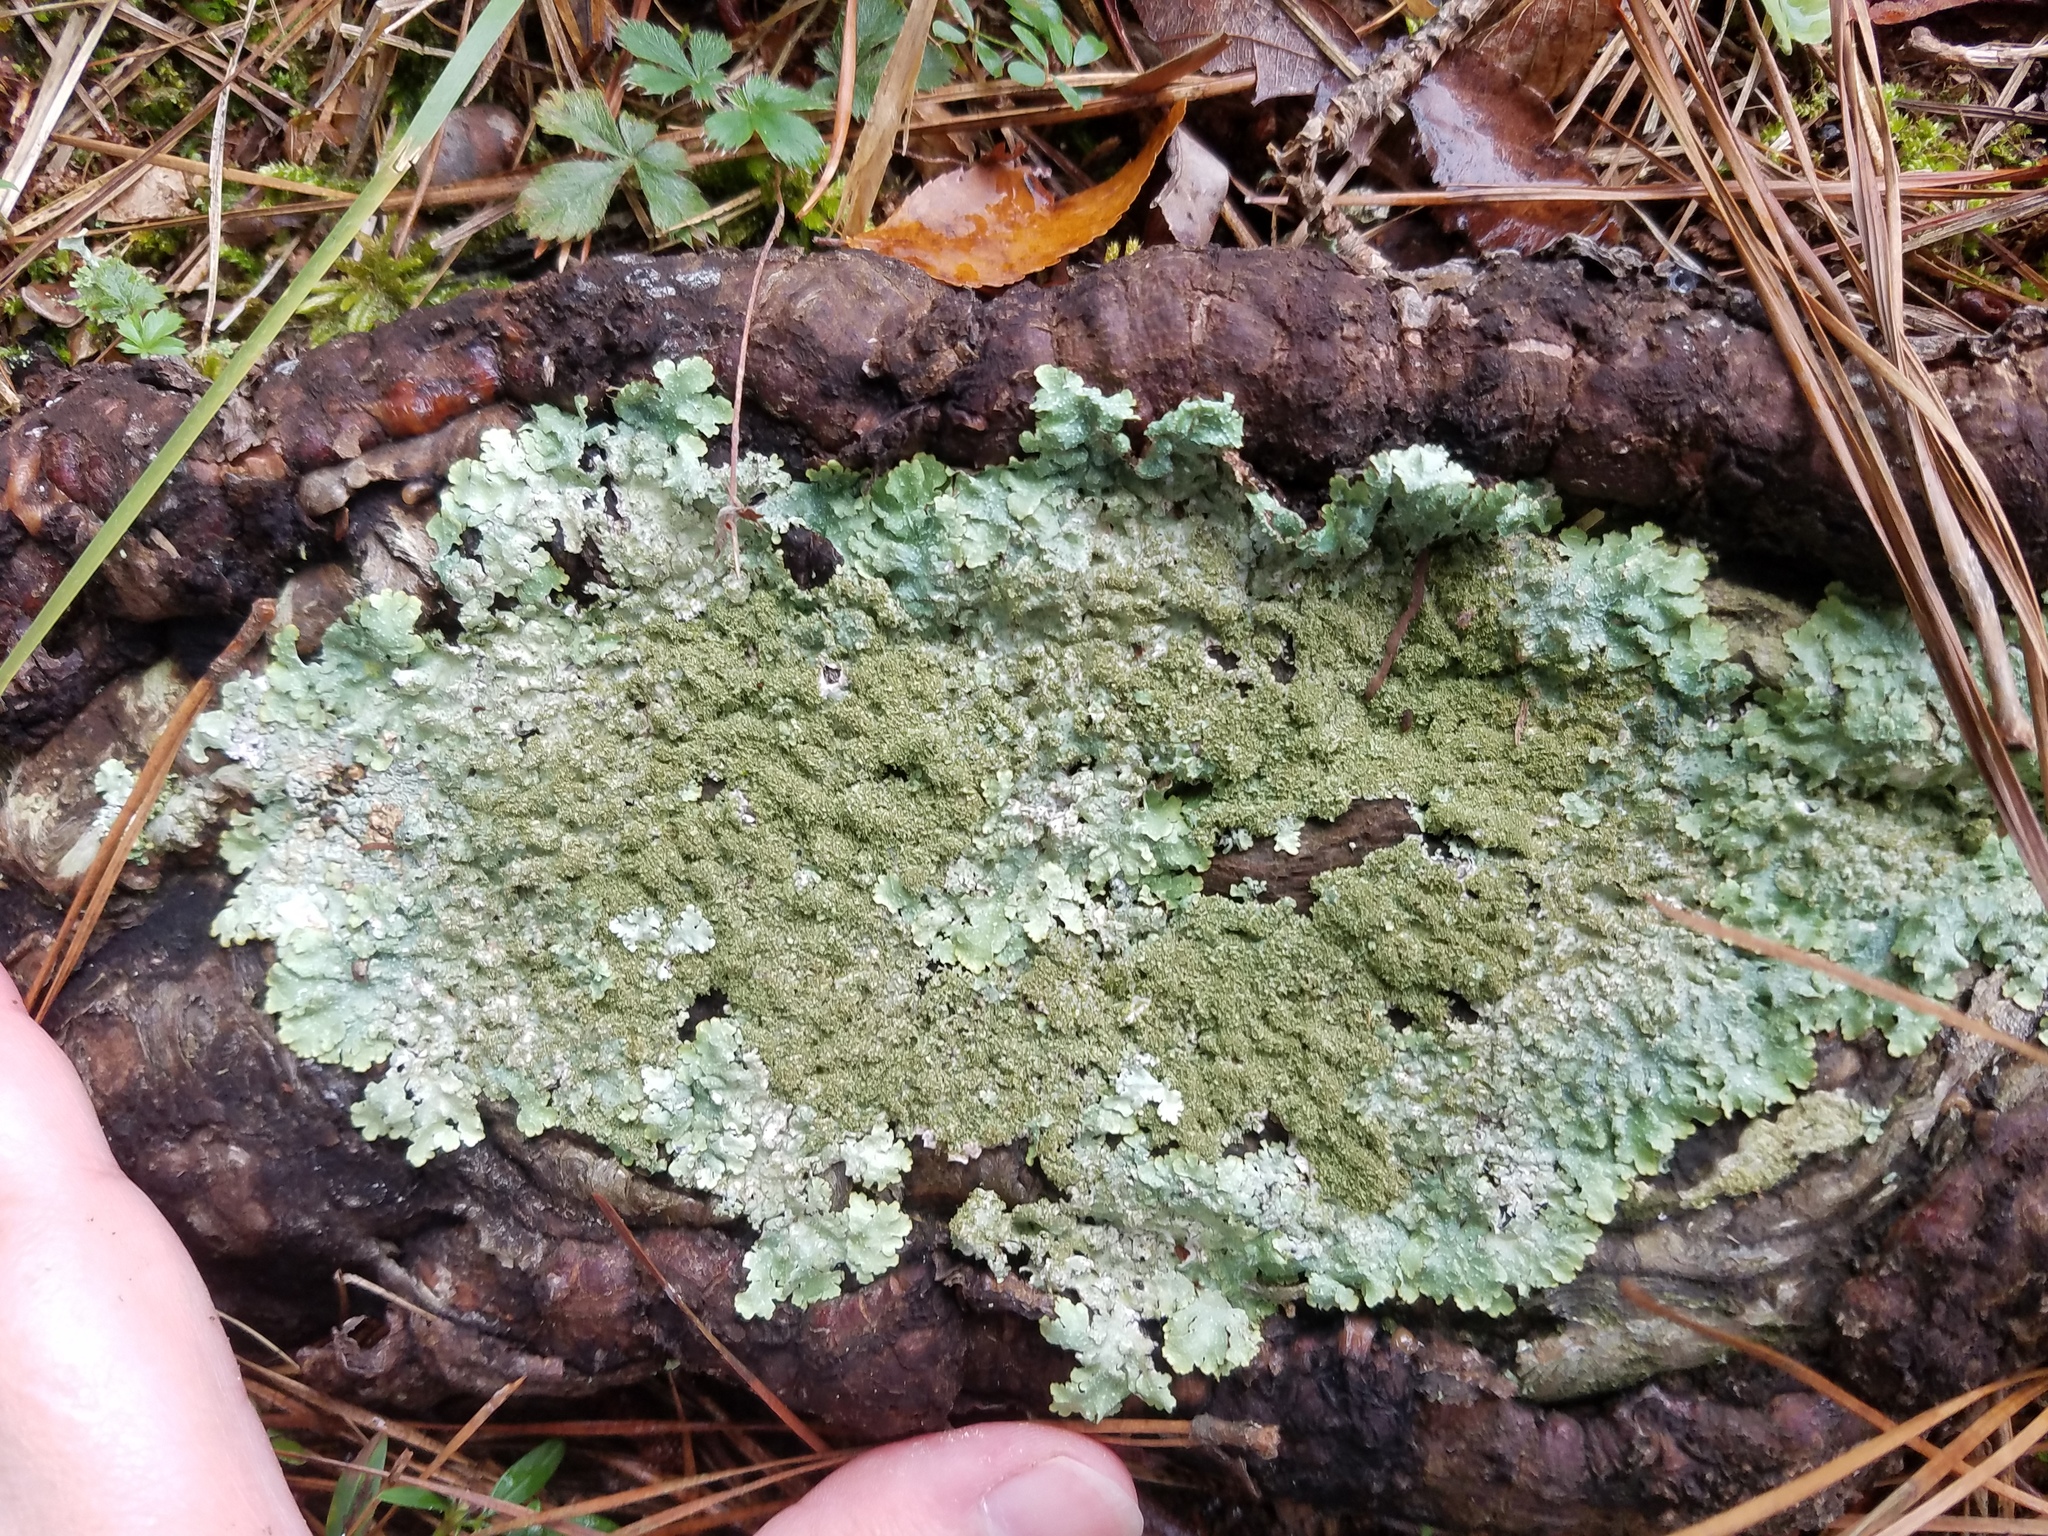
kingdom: Fungi
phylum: Ascomycota
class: Lecanoromycetes
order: Lecanorales
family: Parmeliaceae
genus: Punctelia
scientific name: Punctelia rudecta
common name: Rough speckled shield lichen
